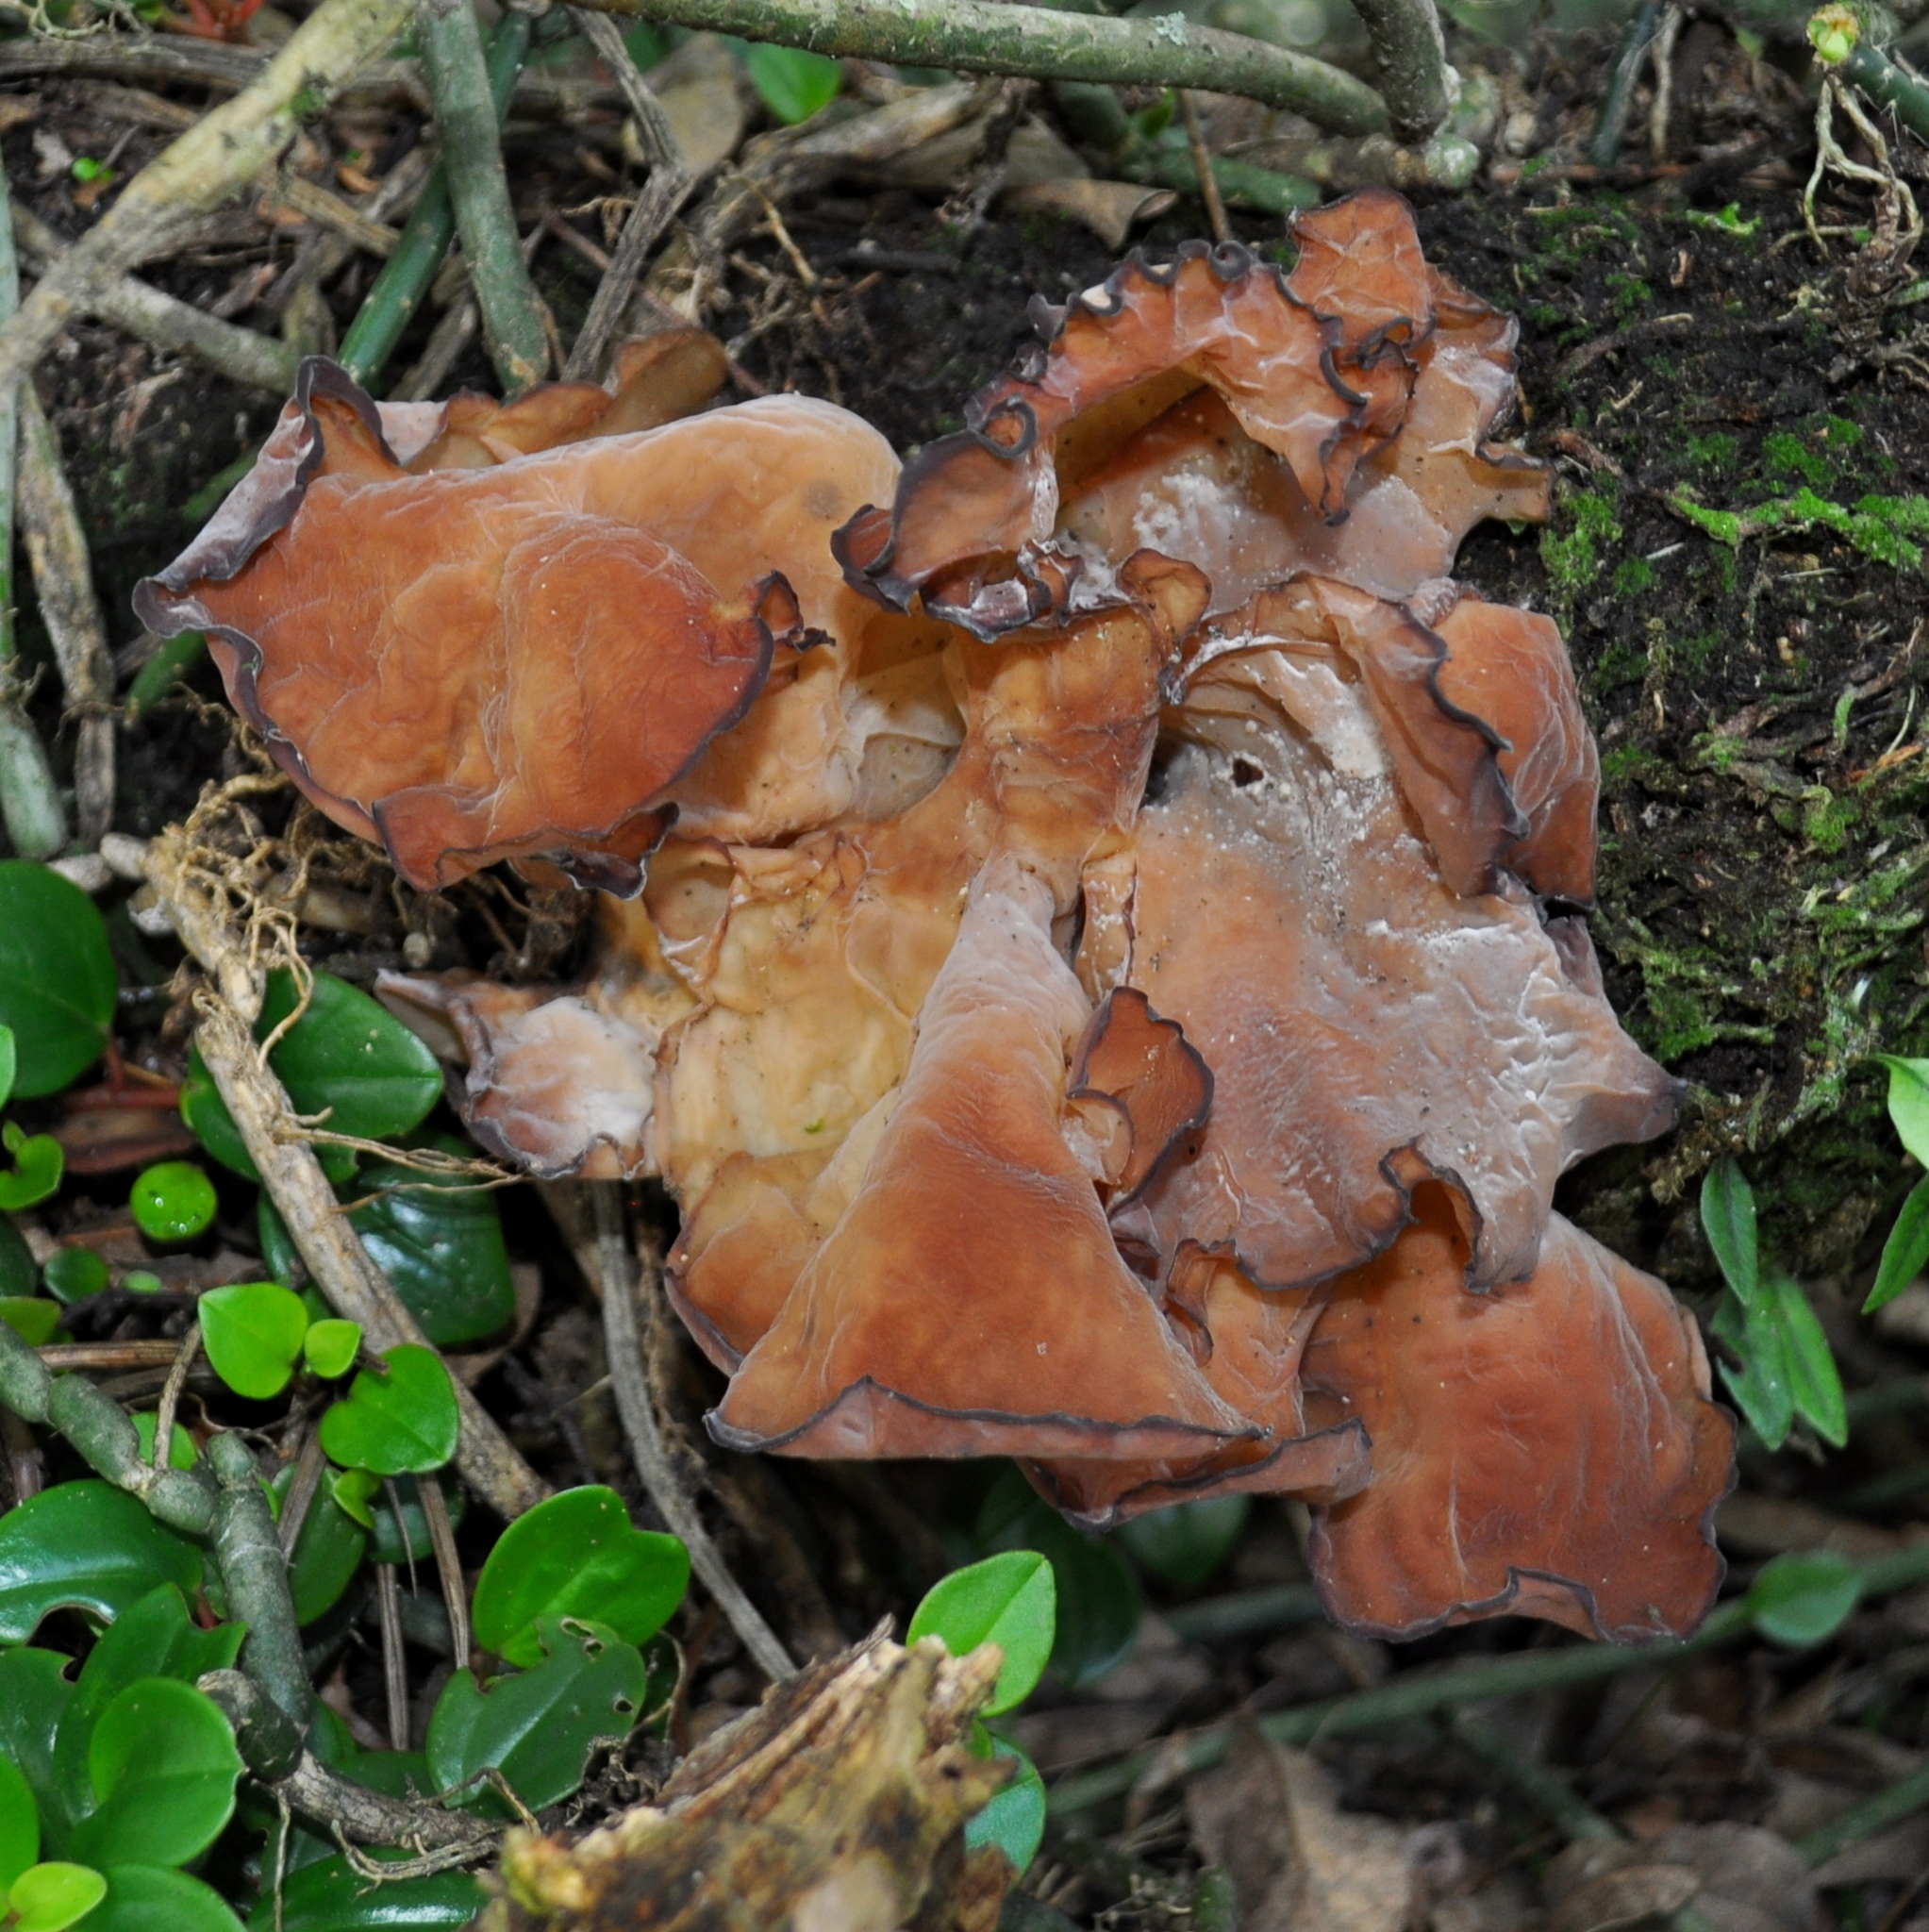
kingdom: Fungi
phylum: Basidiomycota
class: Agaricomycetes
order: Auriculariales
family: Auriculariaceae
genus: Auricularia
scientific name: Auricularia fuscosuccinea
